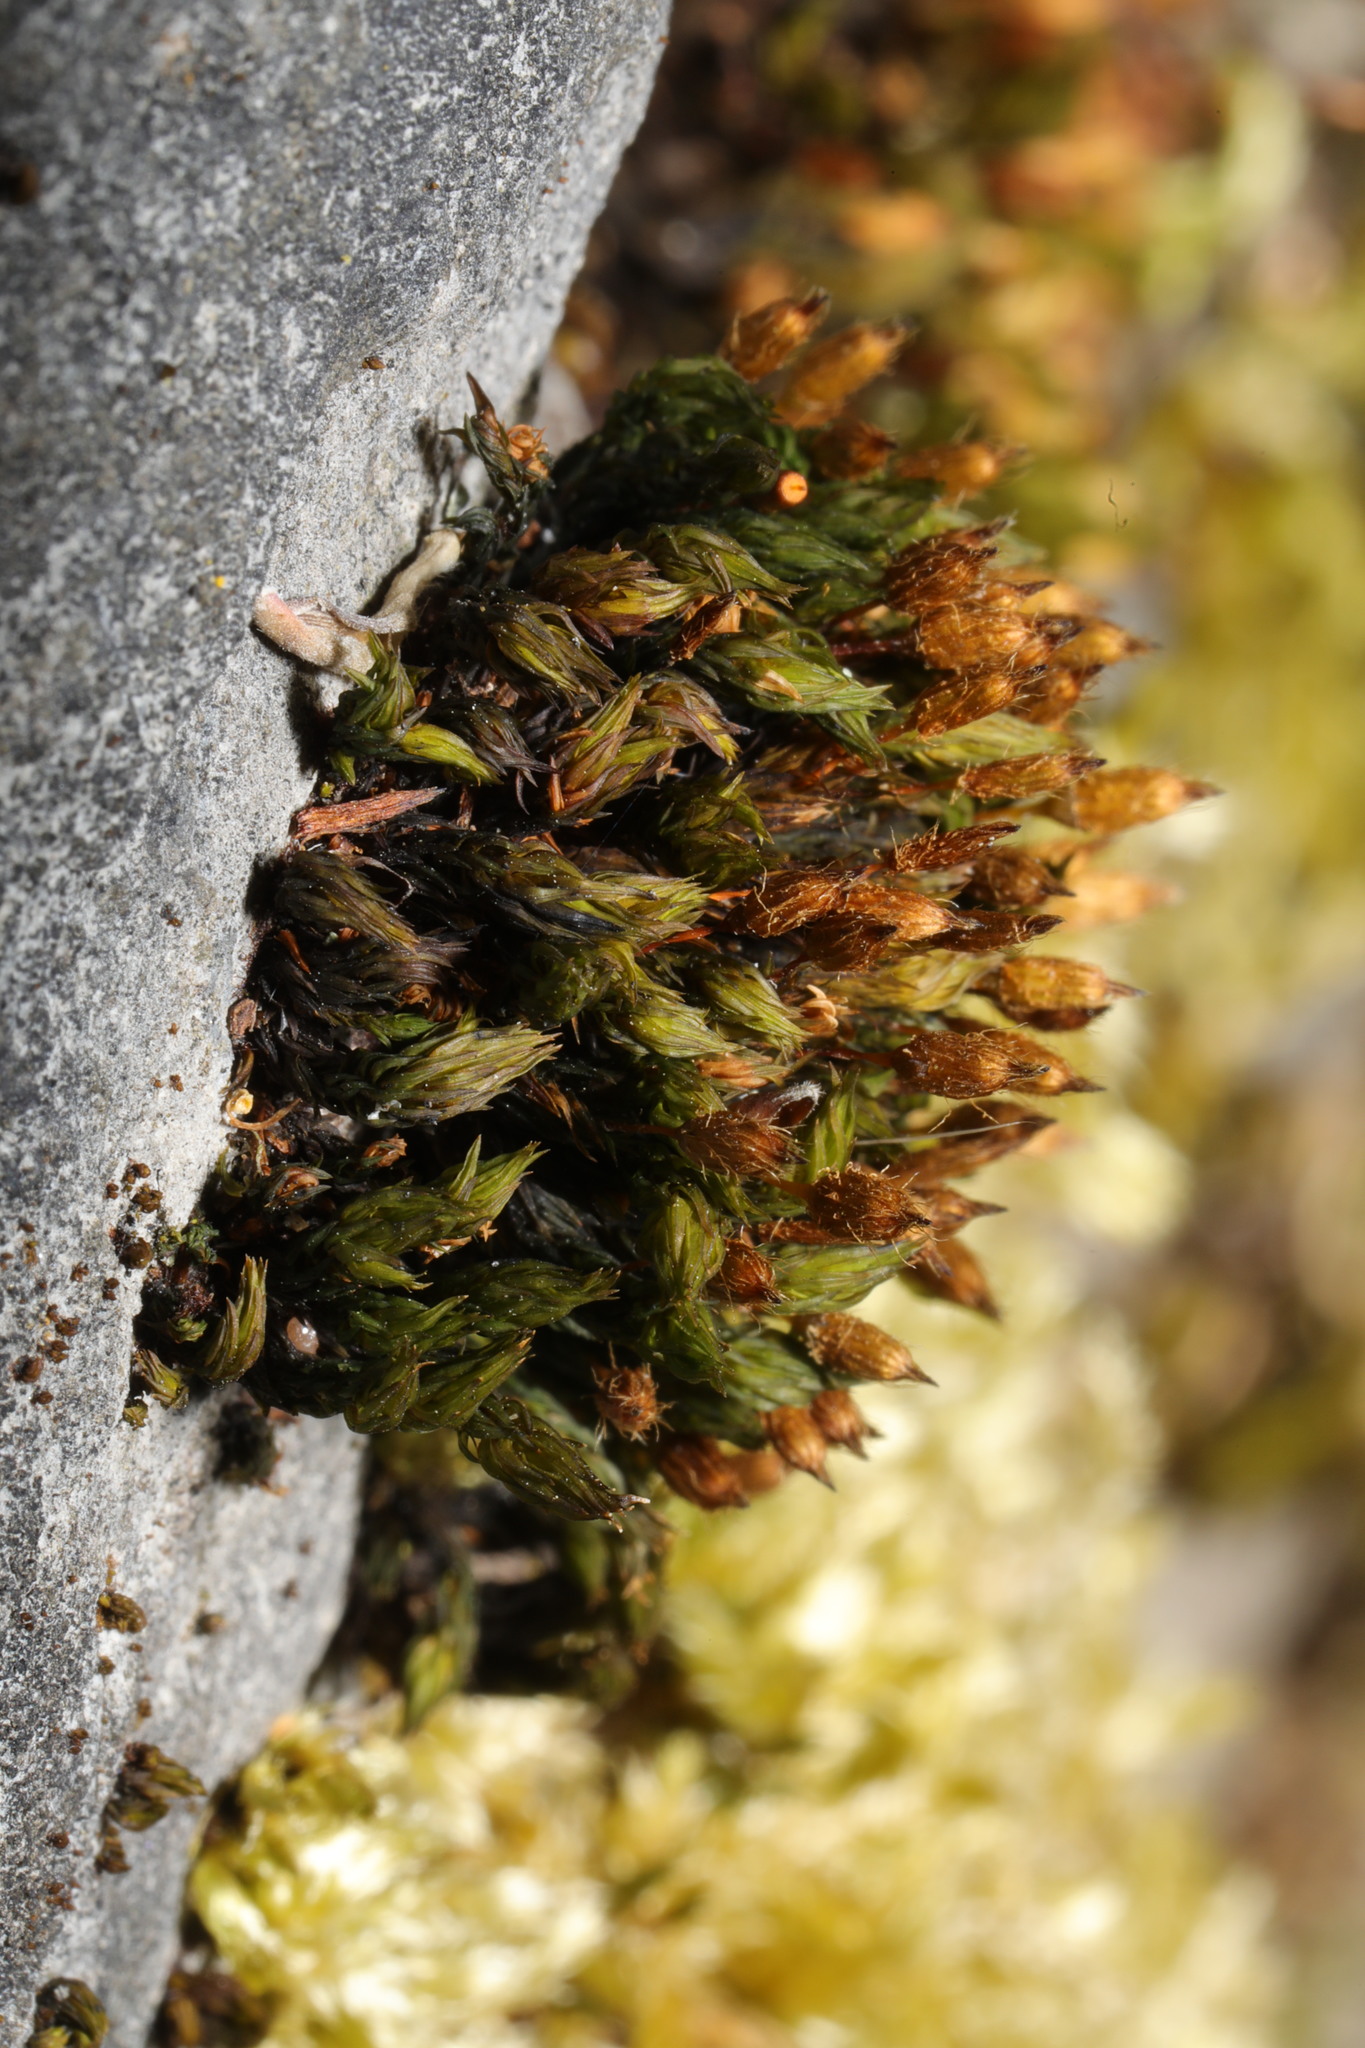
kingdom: Plantae
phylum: Bryophyta
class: Bryopsida
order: Orthotrichales
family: Orthotrichaceae
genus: Orthotrichum
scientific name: Orthotrichum anomalum
